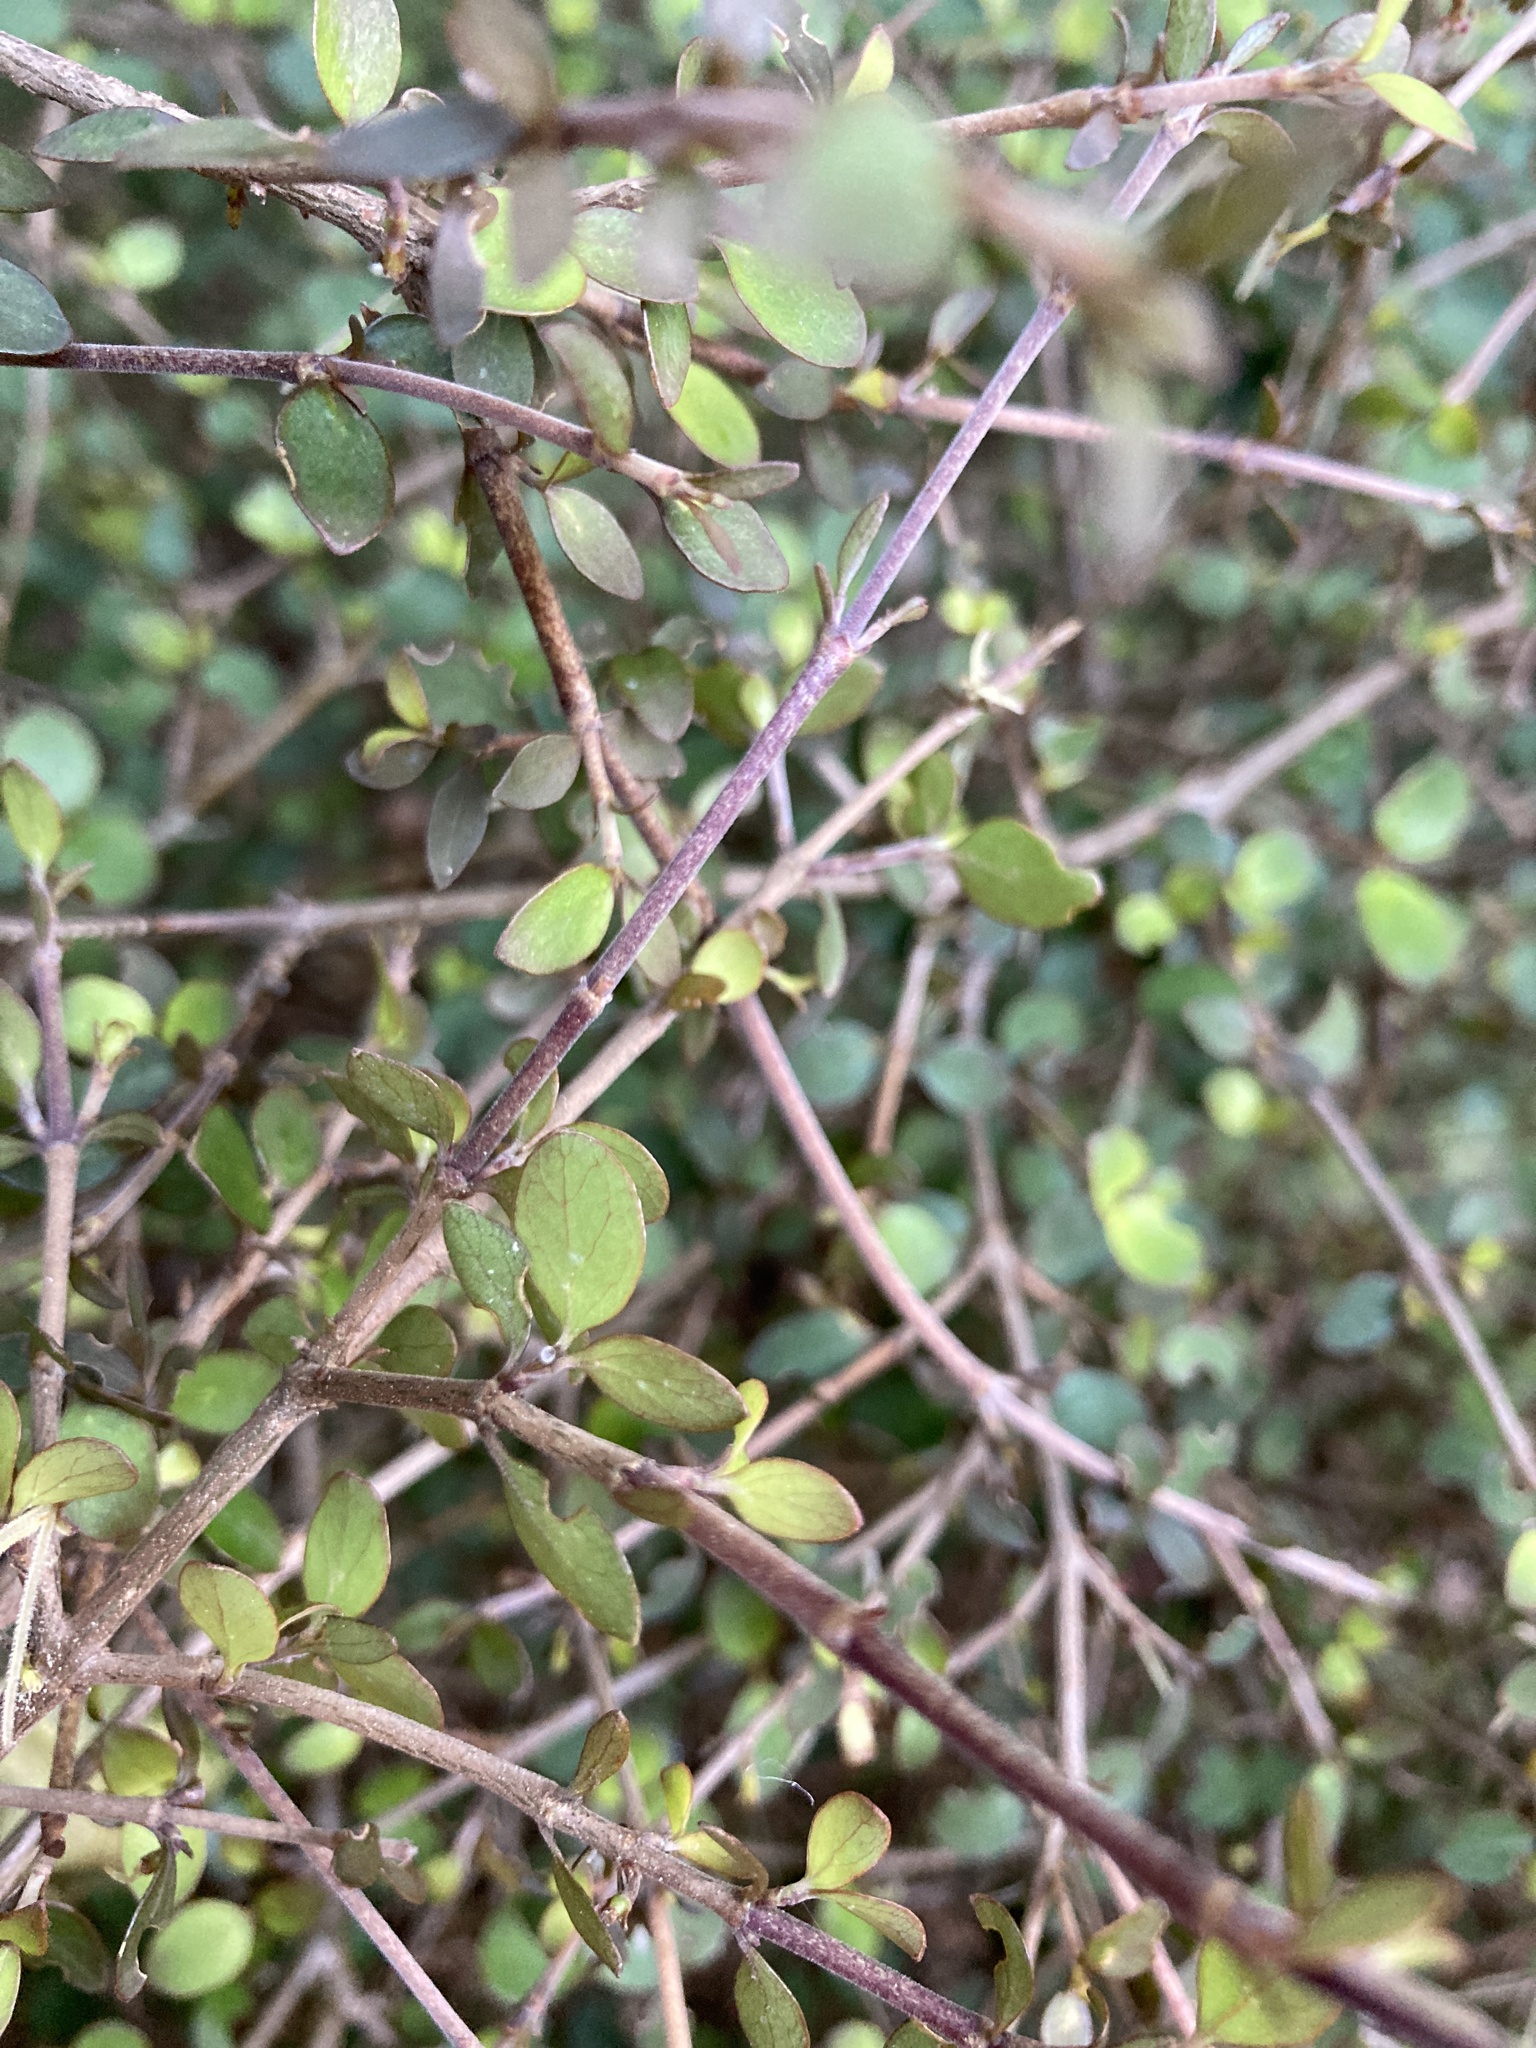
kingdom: Plantae
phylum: Tracheophyta
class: Magnoliopsida
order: Gentianales
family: Rubiaceae
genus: Coprosma
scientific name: Coprosma rhamnoides
